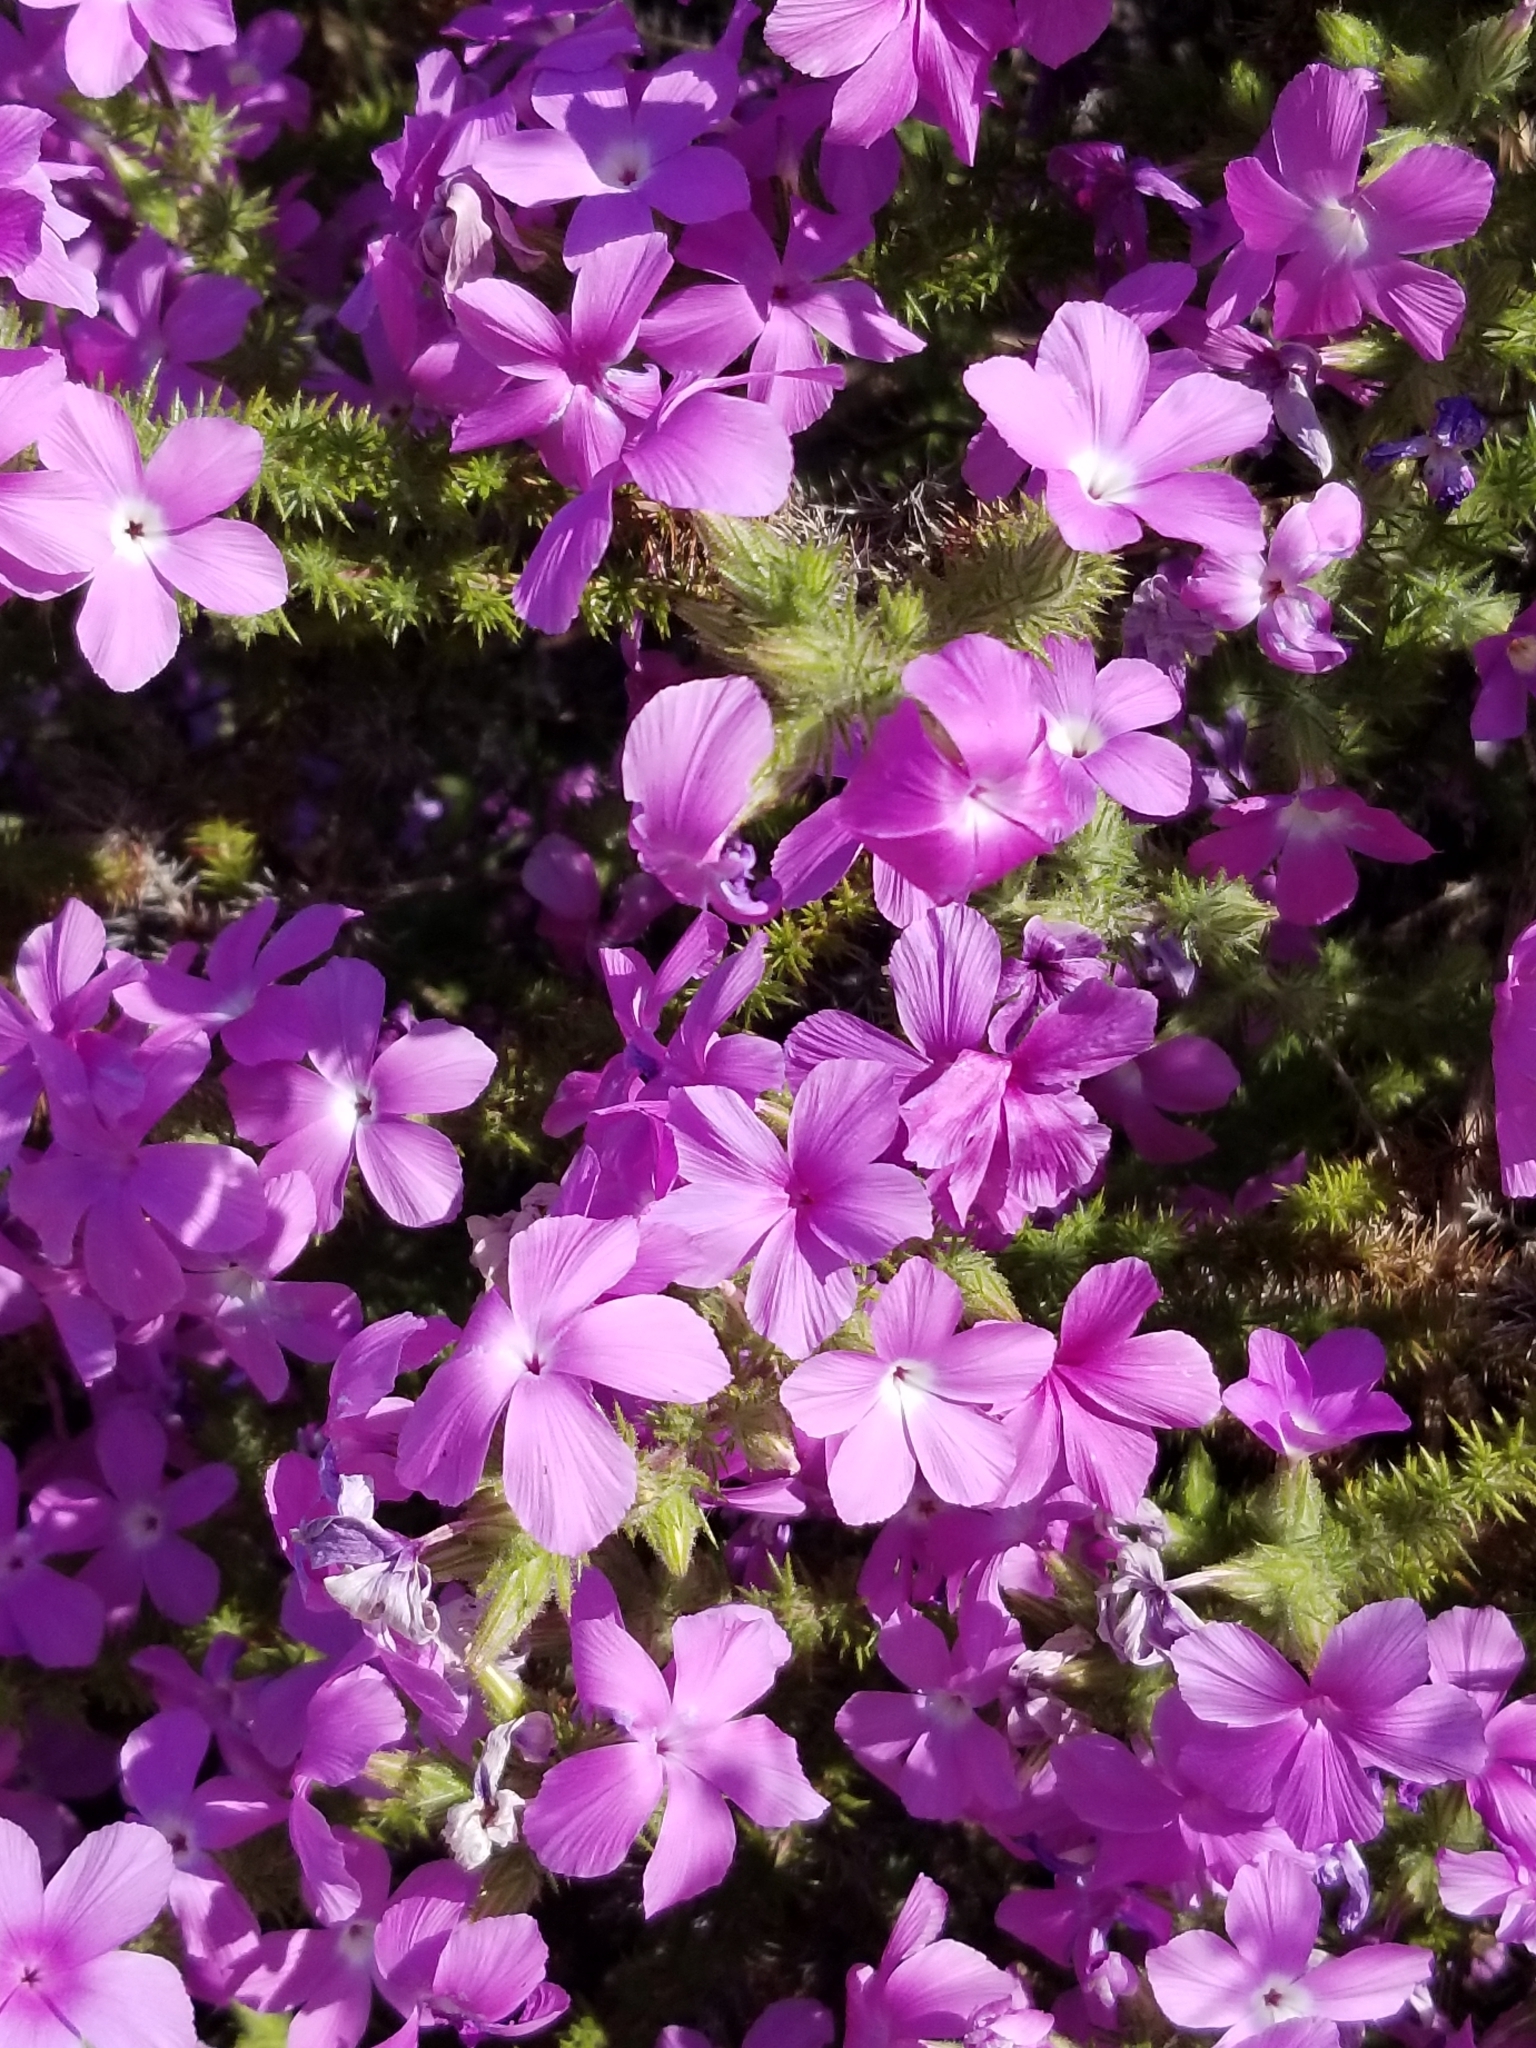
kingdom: Plantae
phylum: Tracheophyta
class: Magnoliopsida
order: Ericales
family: Polemoniaceae
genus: Linanthus
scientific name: Linanthus californicus
